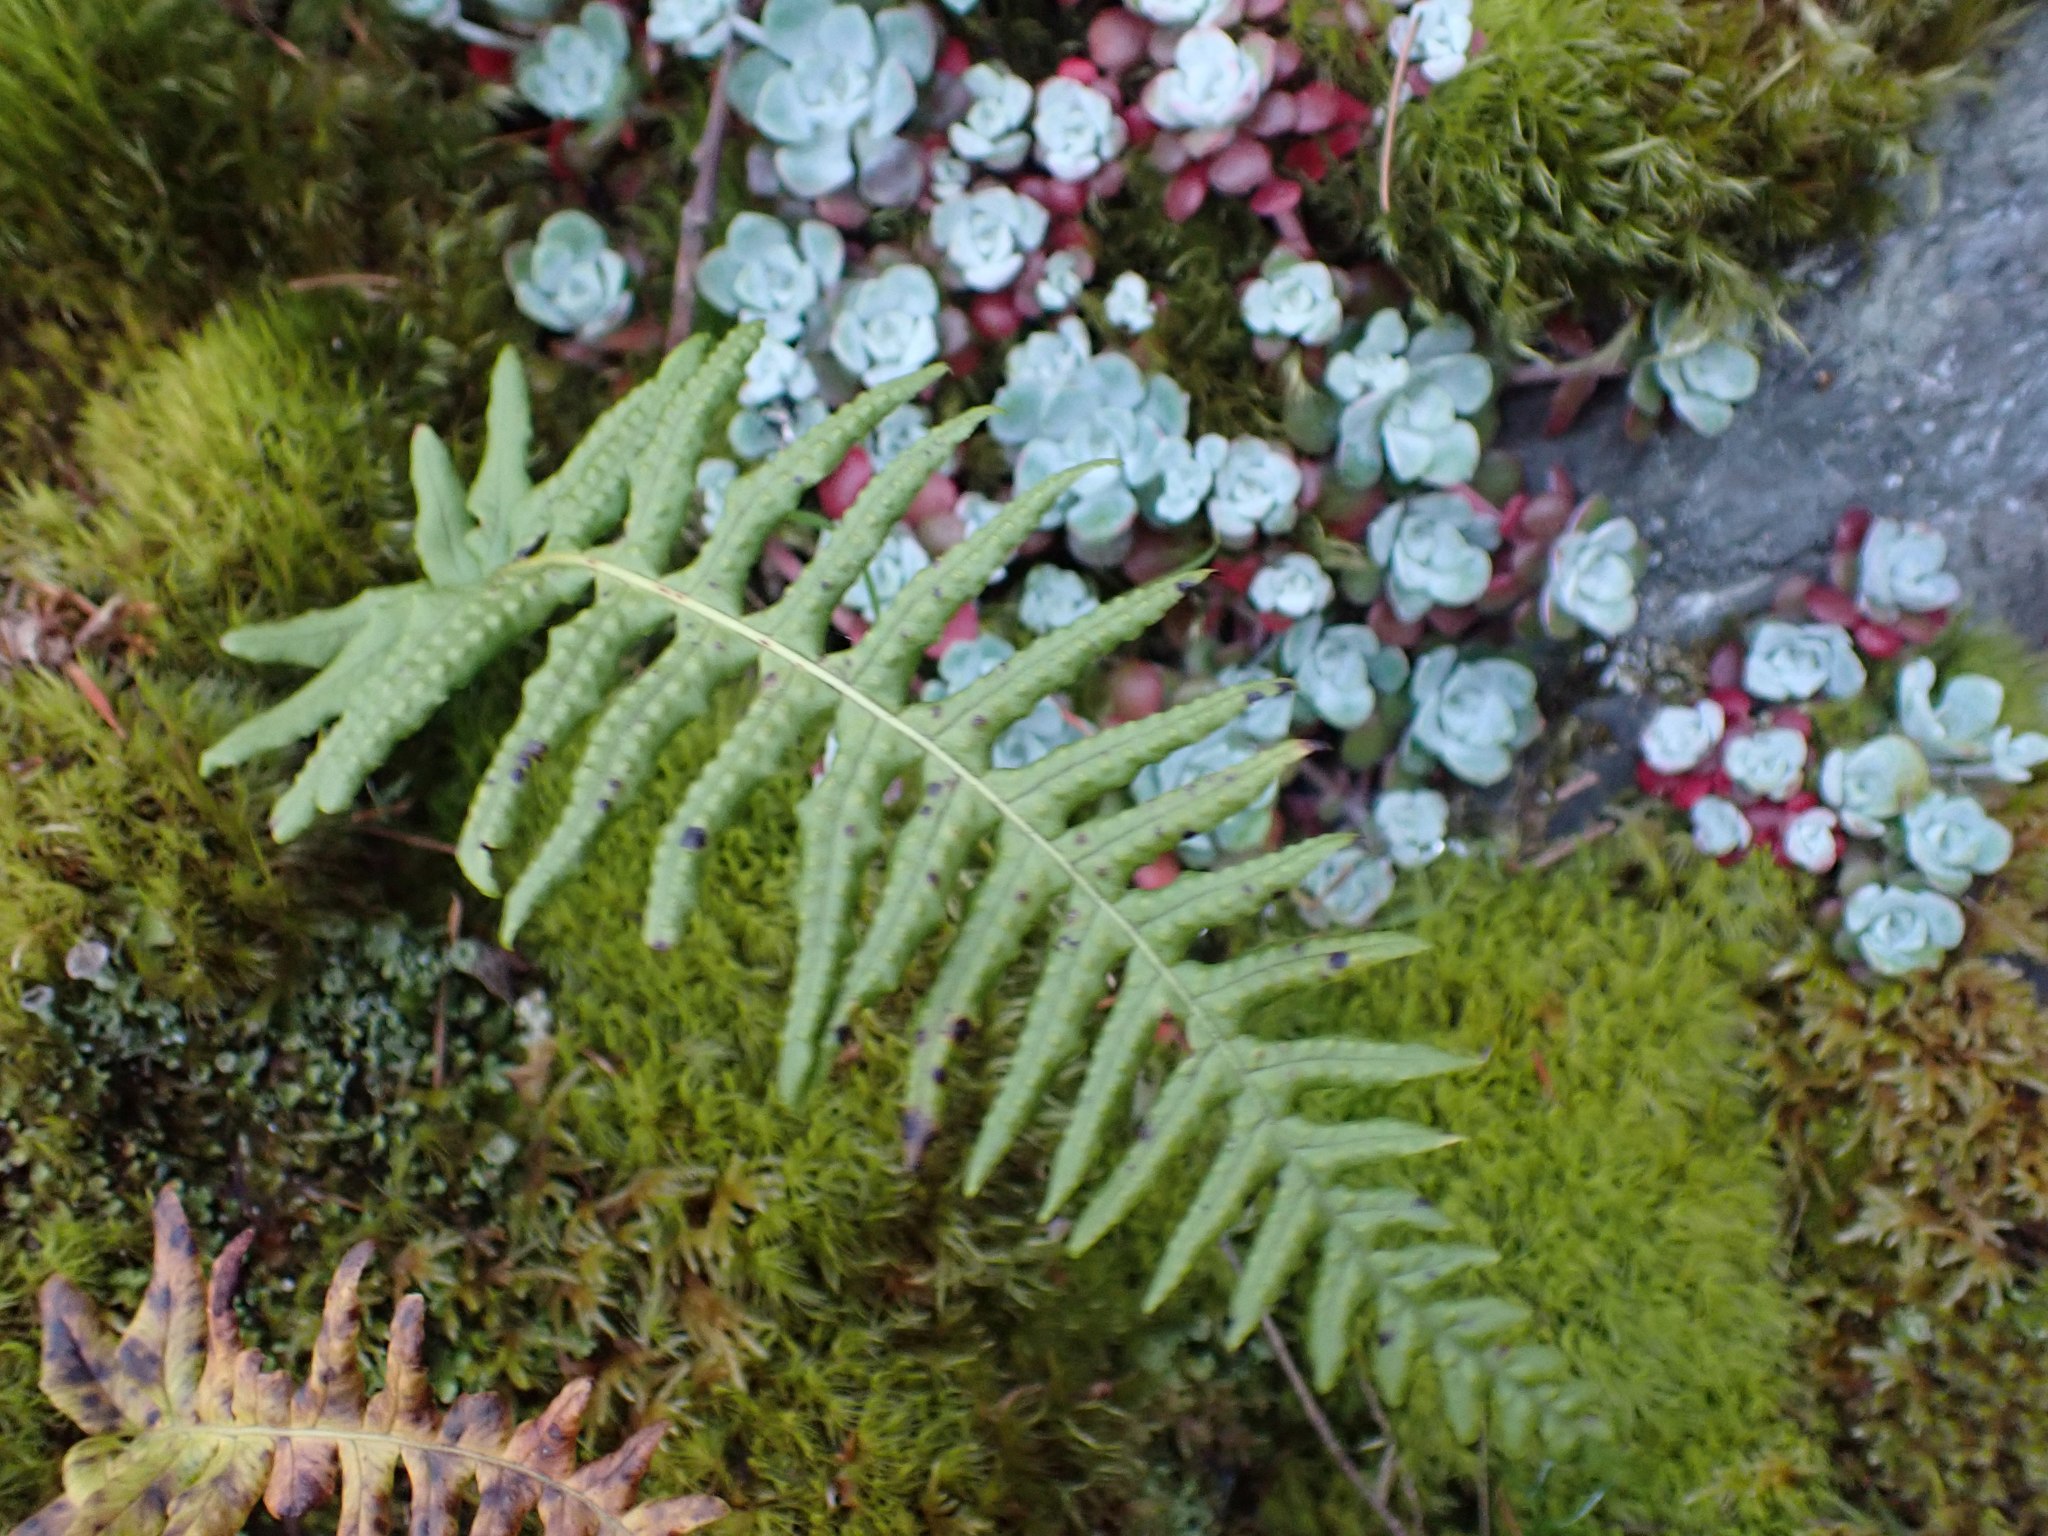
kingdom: Plantae
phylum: Tracheophyta
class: Polypodiopsida
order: Polypodiales
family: Polypodiaceae
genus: Polypodium
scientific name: Polypodium glycyrrhiza
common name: Licorice fern
